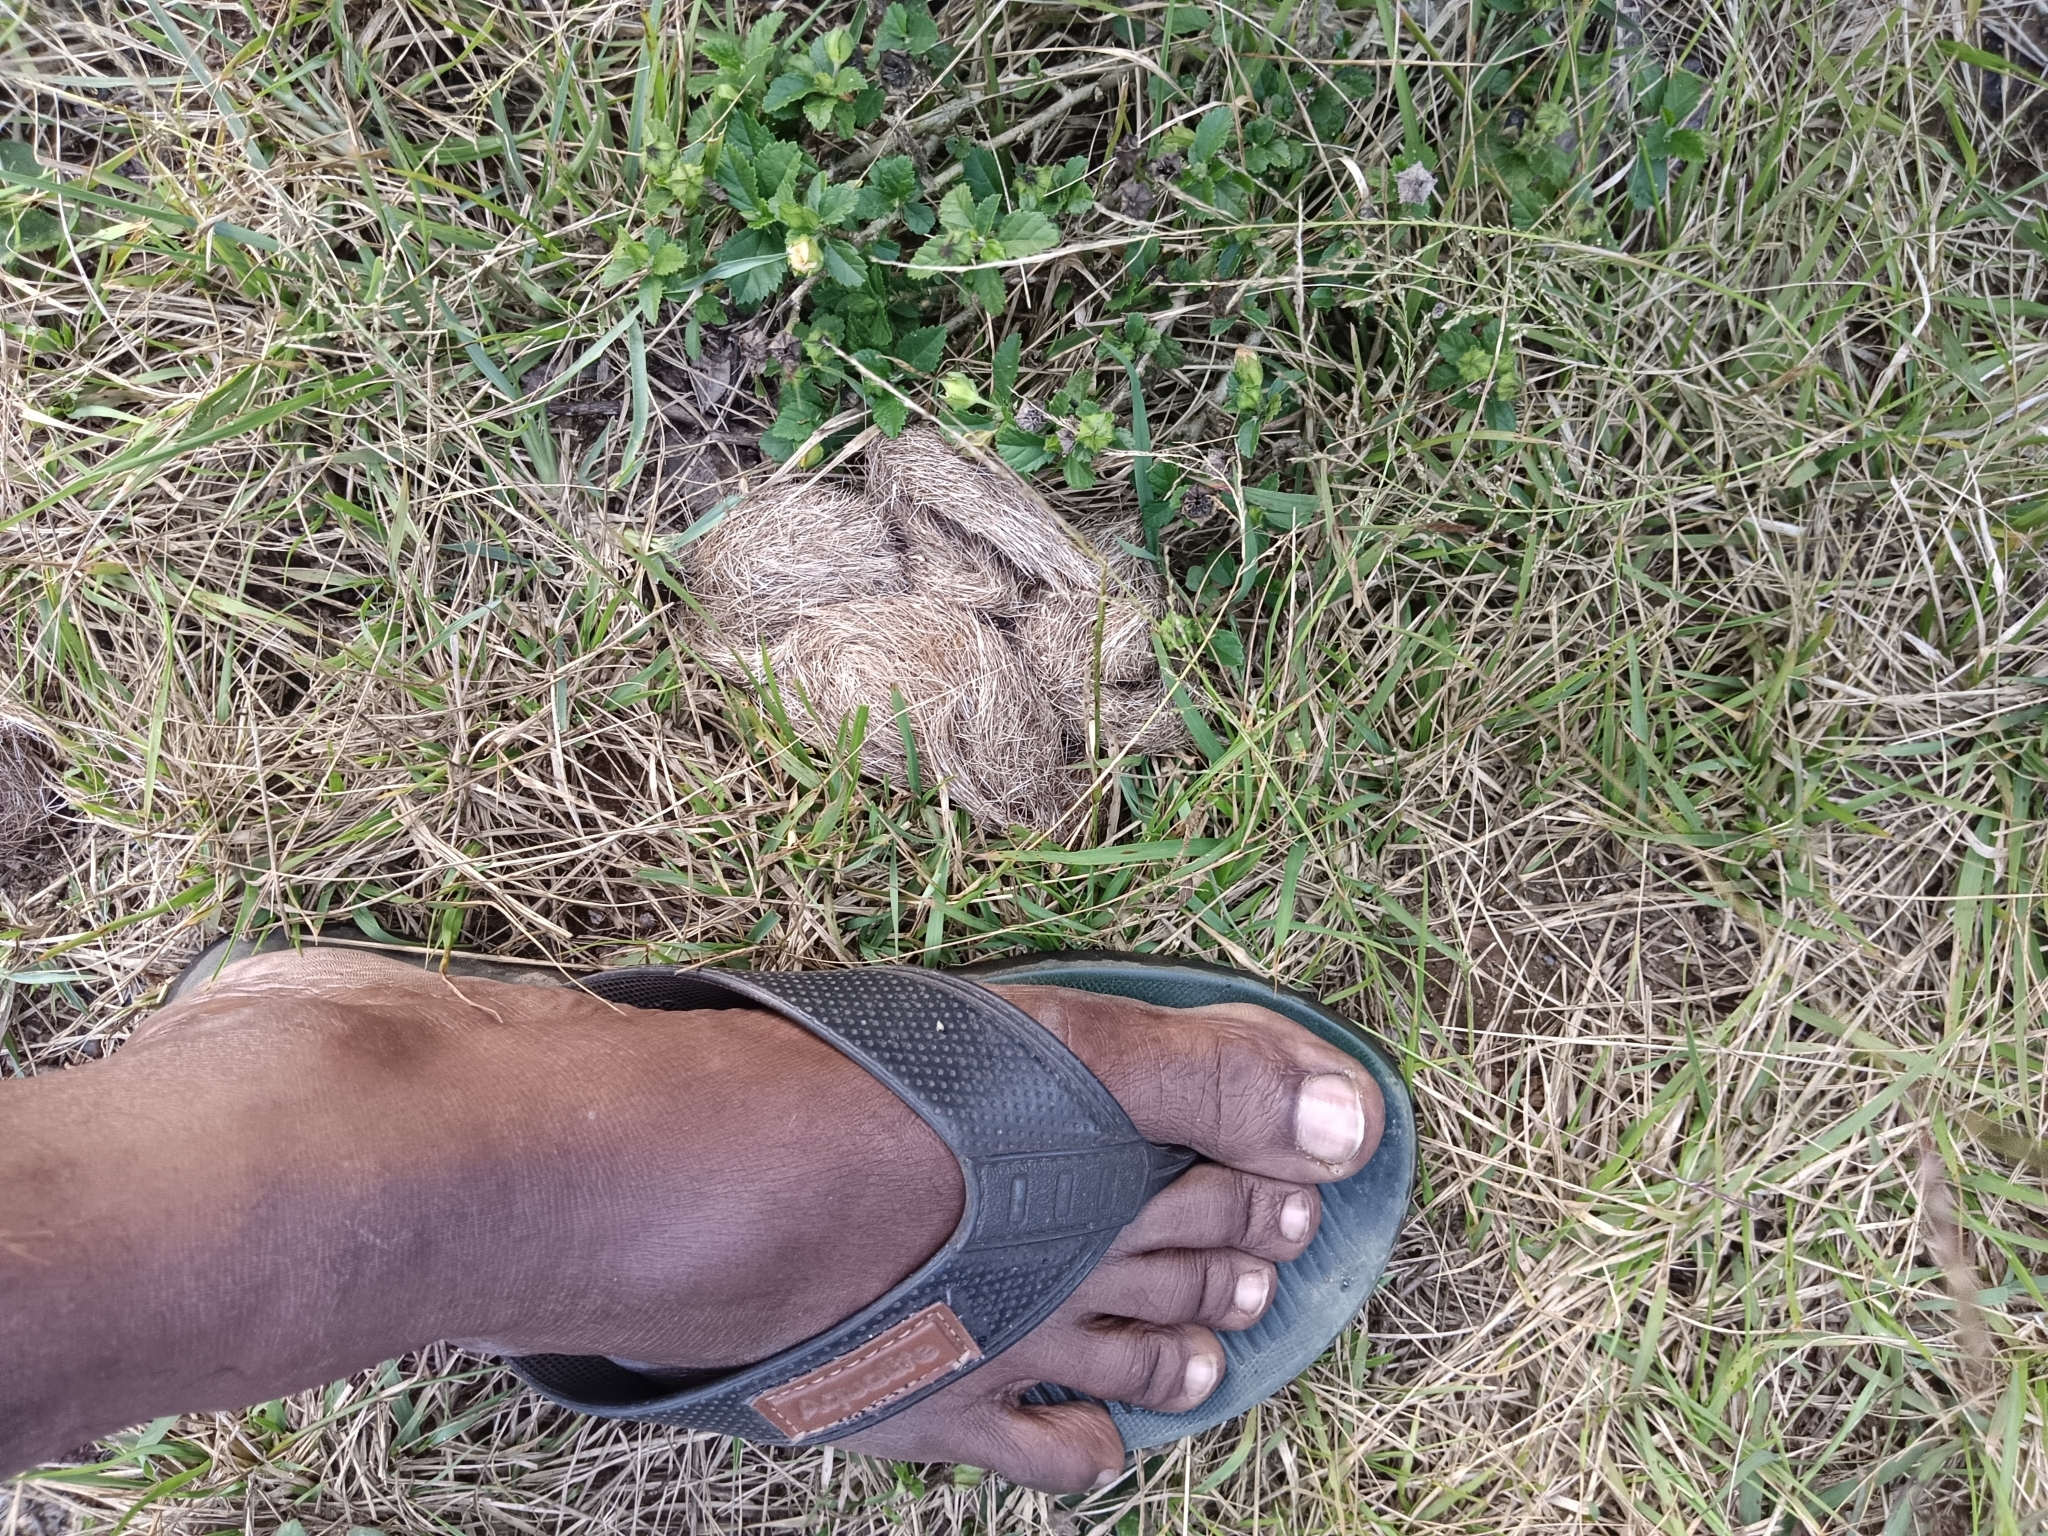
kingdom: Animalia
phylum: Chordata
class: Mammalia
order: Carnivora
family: Felidae
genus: Panthera
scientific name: Panthera pardus
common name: Leopard
